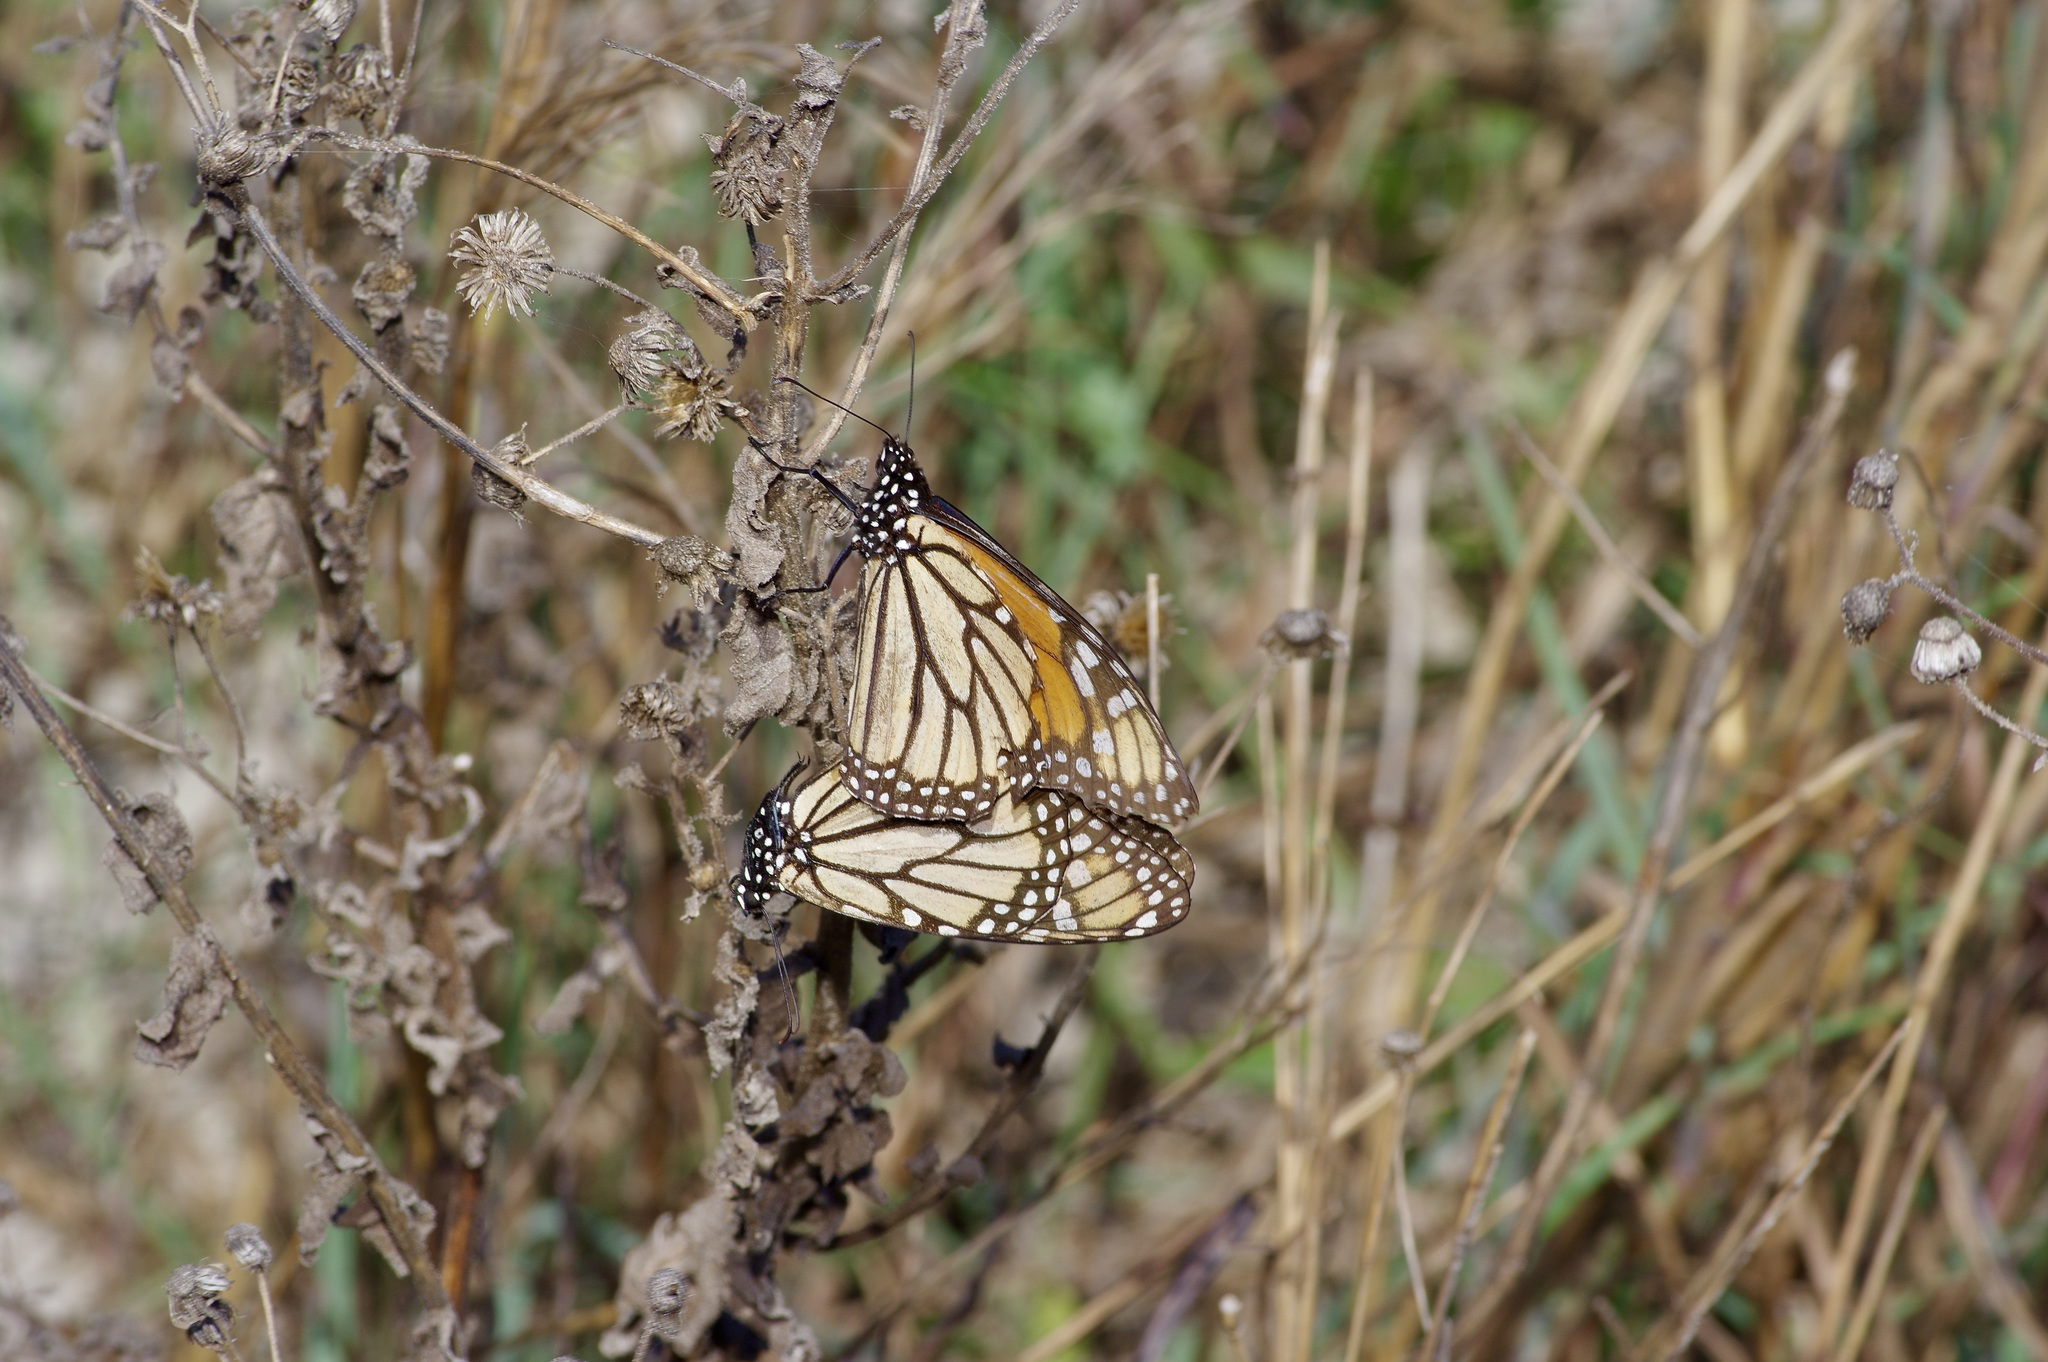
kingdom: Animalia
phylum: Arthropoda
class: Insecta
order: Lepidoptera
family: Nymphalidae
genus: Danaus
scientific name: Danaus plexippus
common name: Monarch
